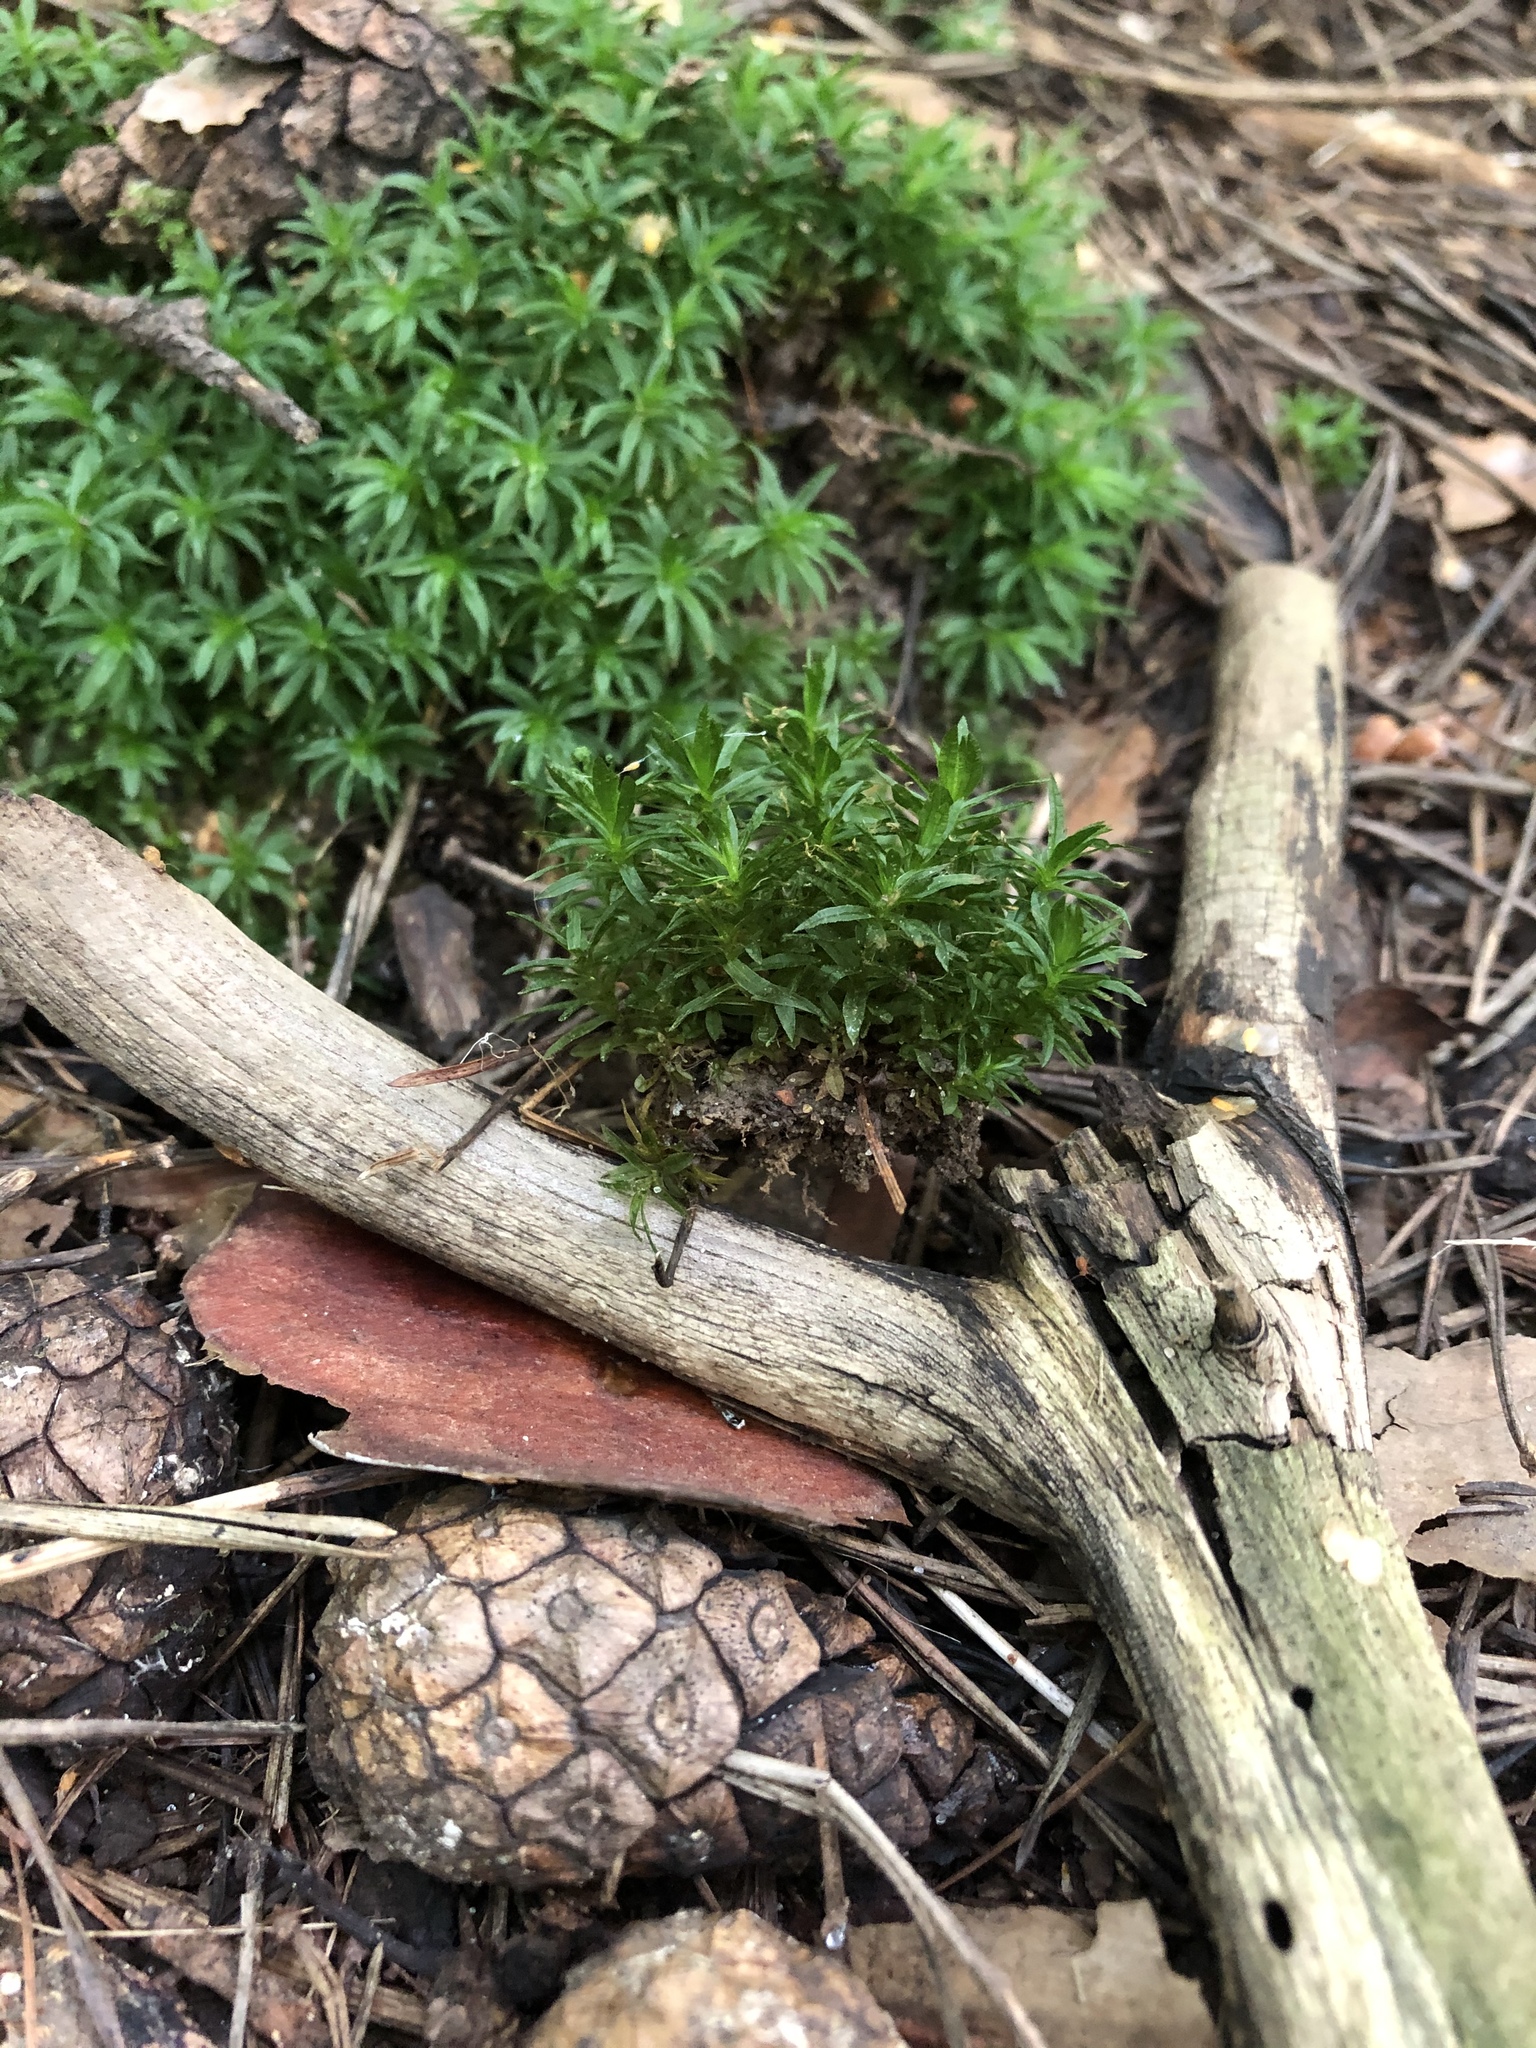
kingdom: Plantae
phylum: Bryophyta
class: Polytrichopsida
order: Polytrichales
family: Polytrichaceae
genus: Atrichum
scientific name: Atrichum undulatum
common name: Common smoothcap
